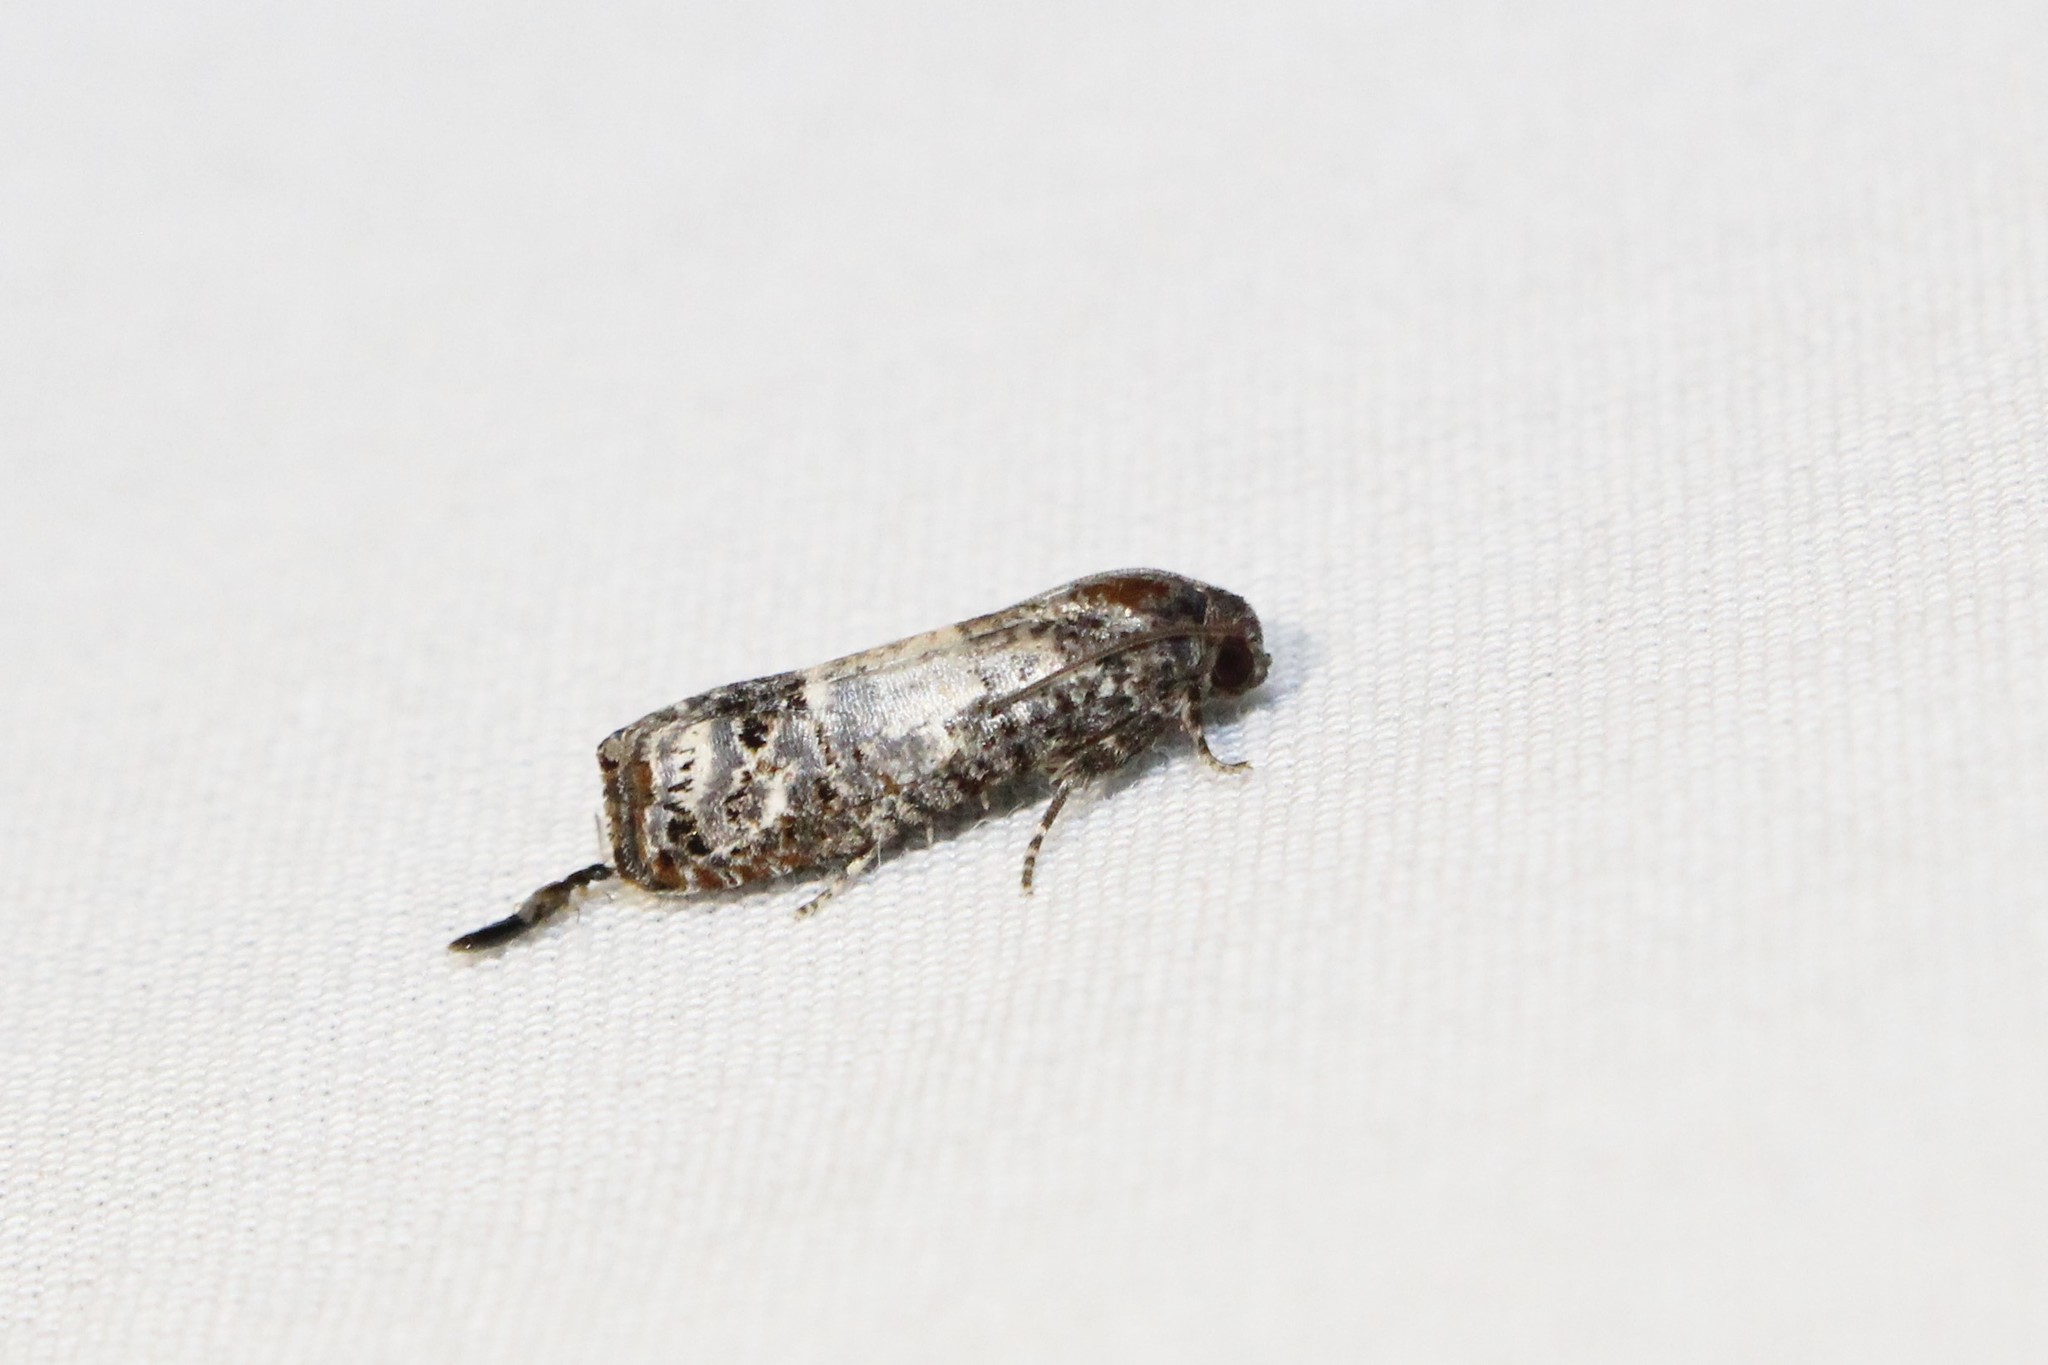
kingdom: Animalia
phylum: Arthropoda
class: Insecta
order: Lepidoptera
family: Tortricidae
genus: Epiblema
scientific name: Epiblema carolinana
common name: Gray-blotched epiblema moth
